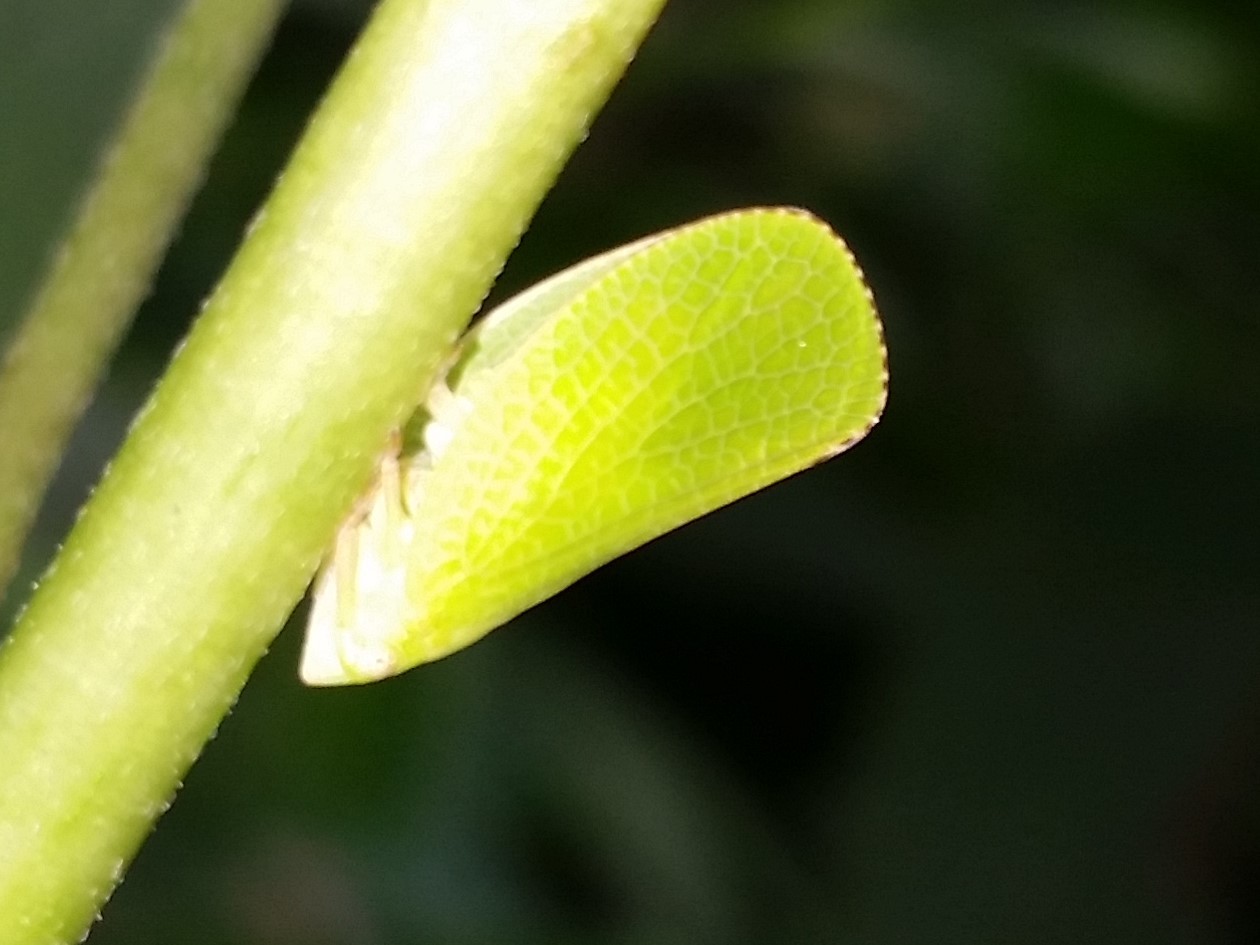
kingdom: Animalia
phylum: Arthropoda
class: Insecta
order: Hemiptera
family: Acanaloniidae
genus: Acanalonia
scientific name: Acanalonia conica
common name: Green cone-headed planthopper
